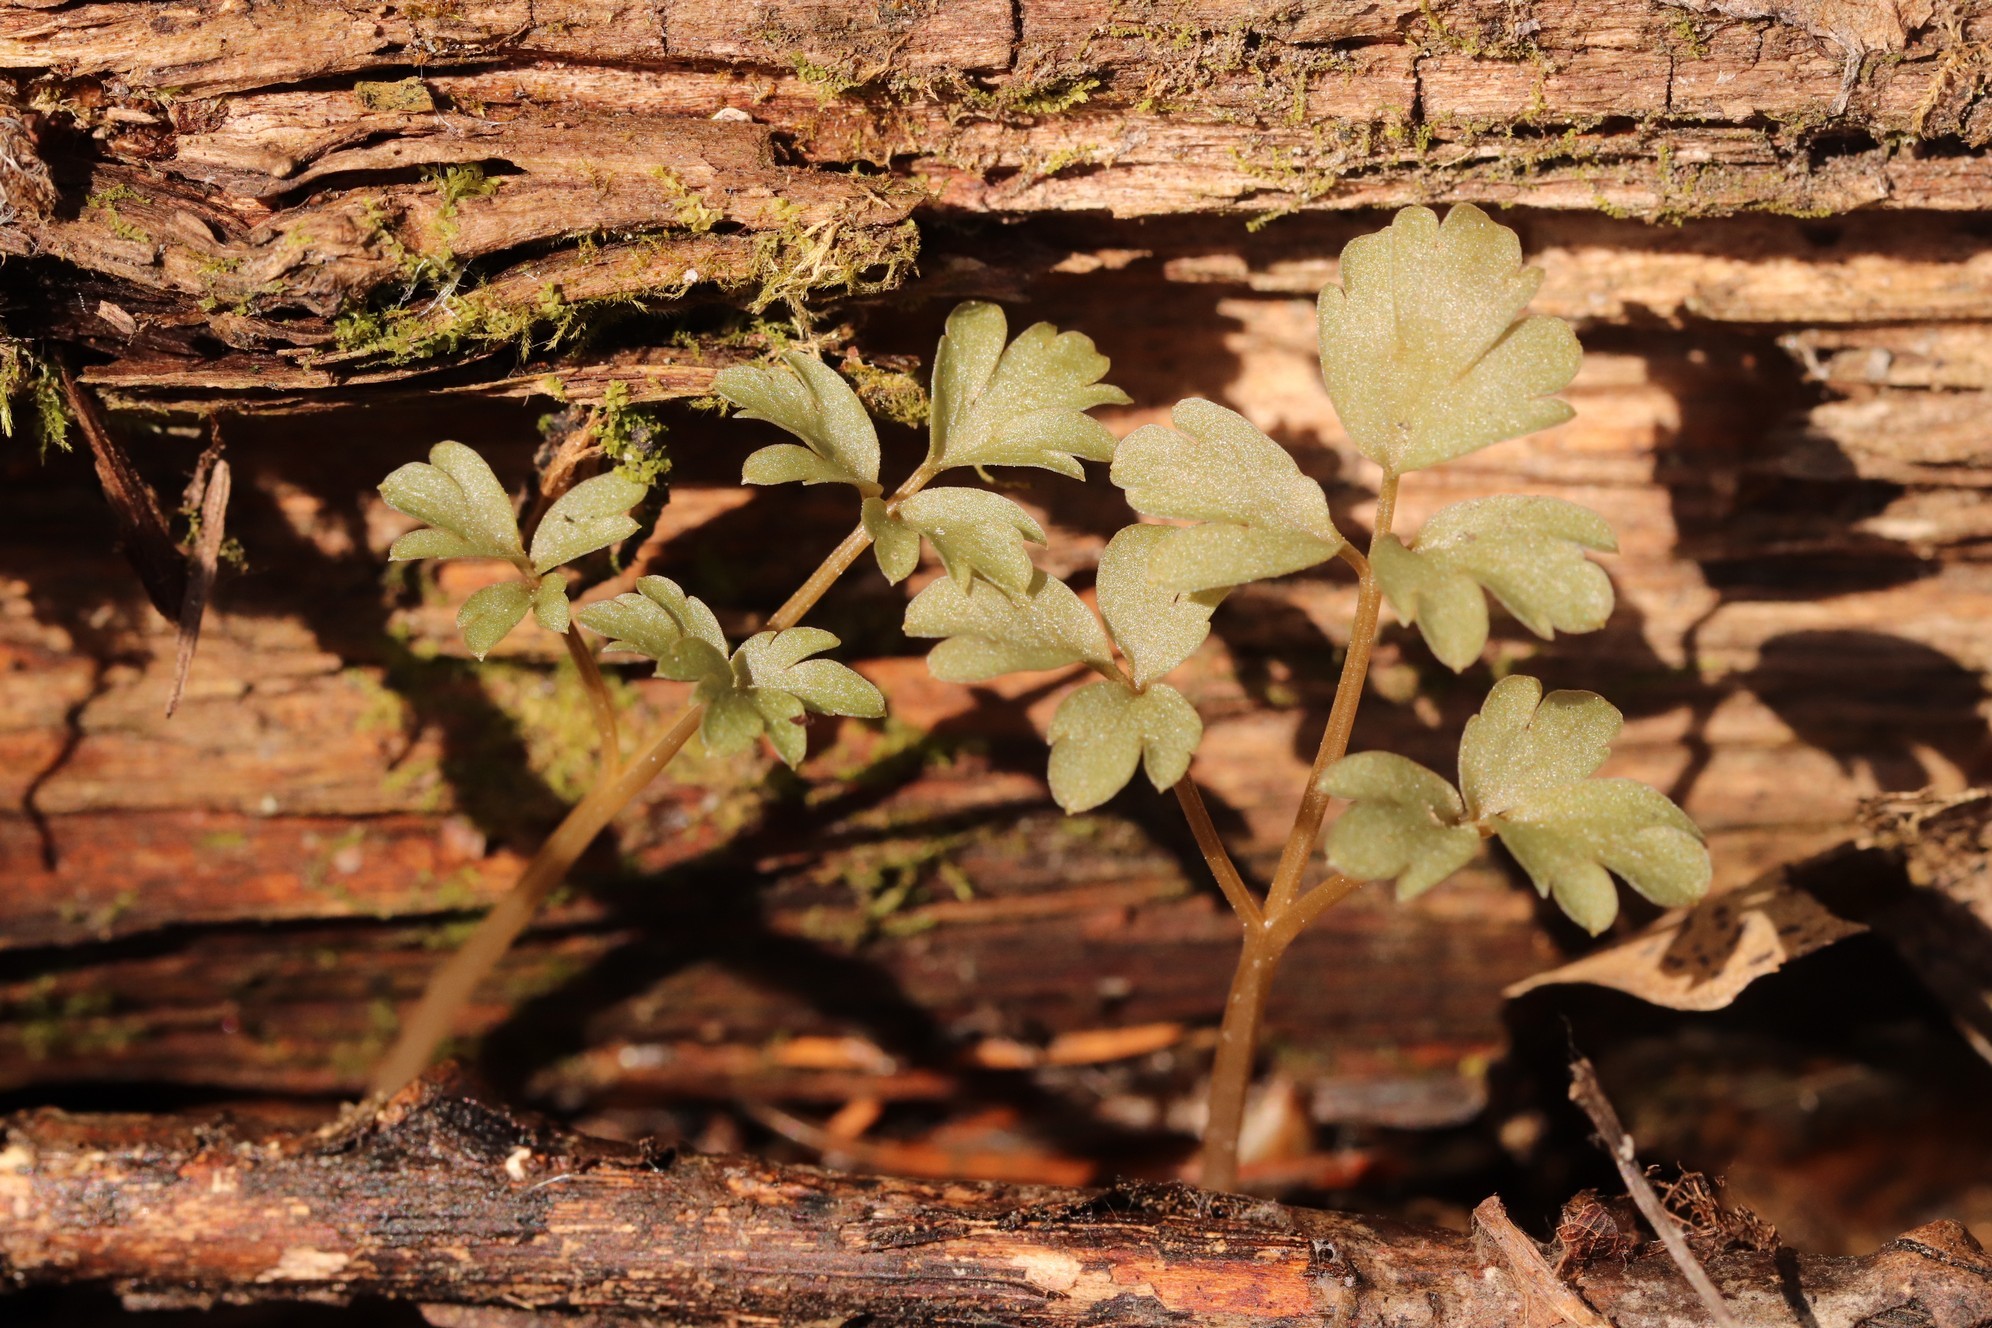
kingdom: Plantae
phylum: Tracheophyta
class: Magnoliopsida
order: Dipsacales
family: Viburnaceae
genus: Adoxa
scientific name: Adoxa moschatellina
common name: Moschatel
